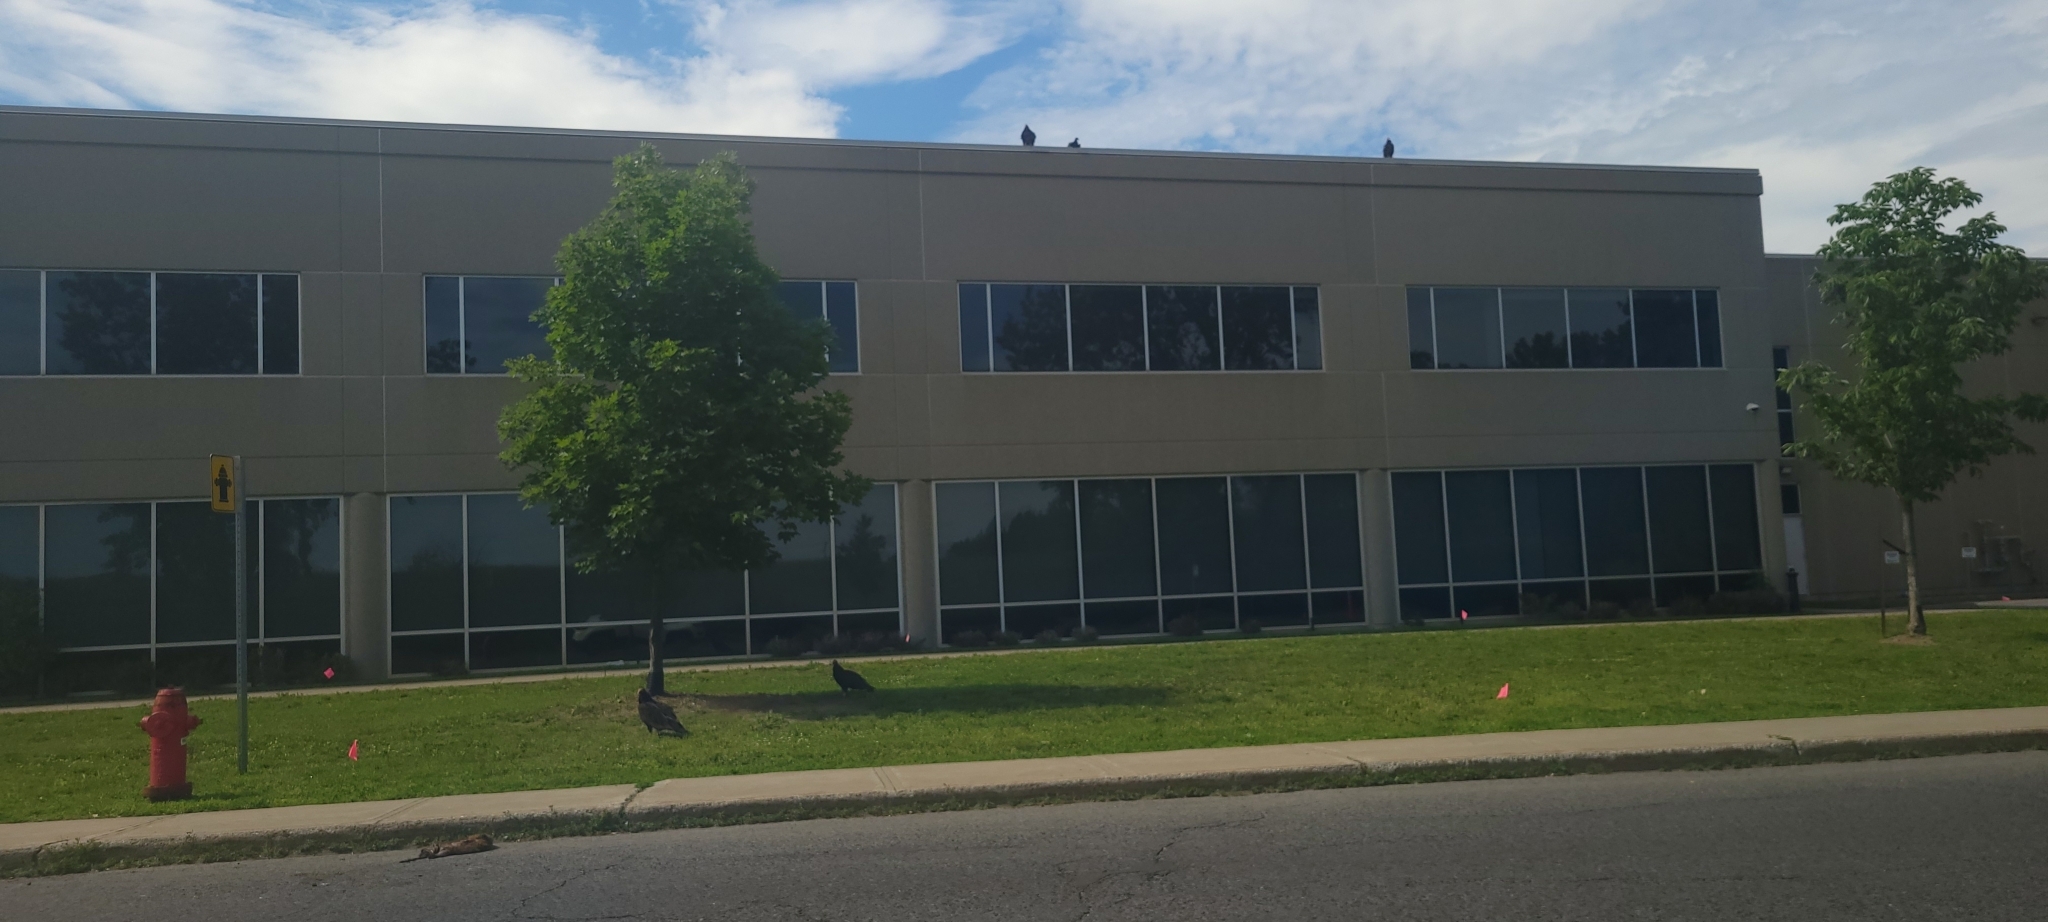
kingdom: Animalia
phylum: Chordata
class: Aves
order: Accipitriformes
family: Cathartidae
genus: Cathartes
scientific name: Cathartes aura
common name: Turkey vulture
